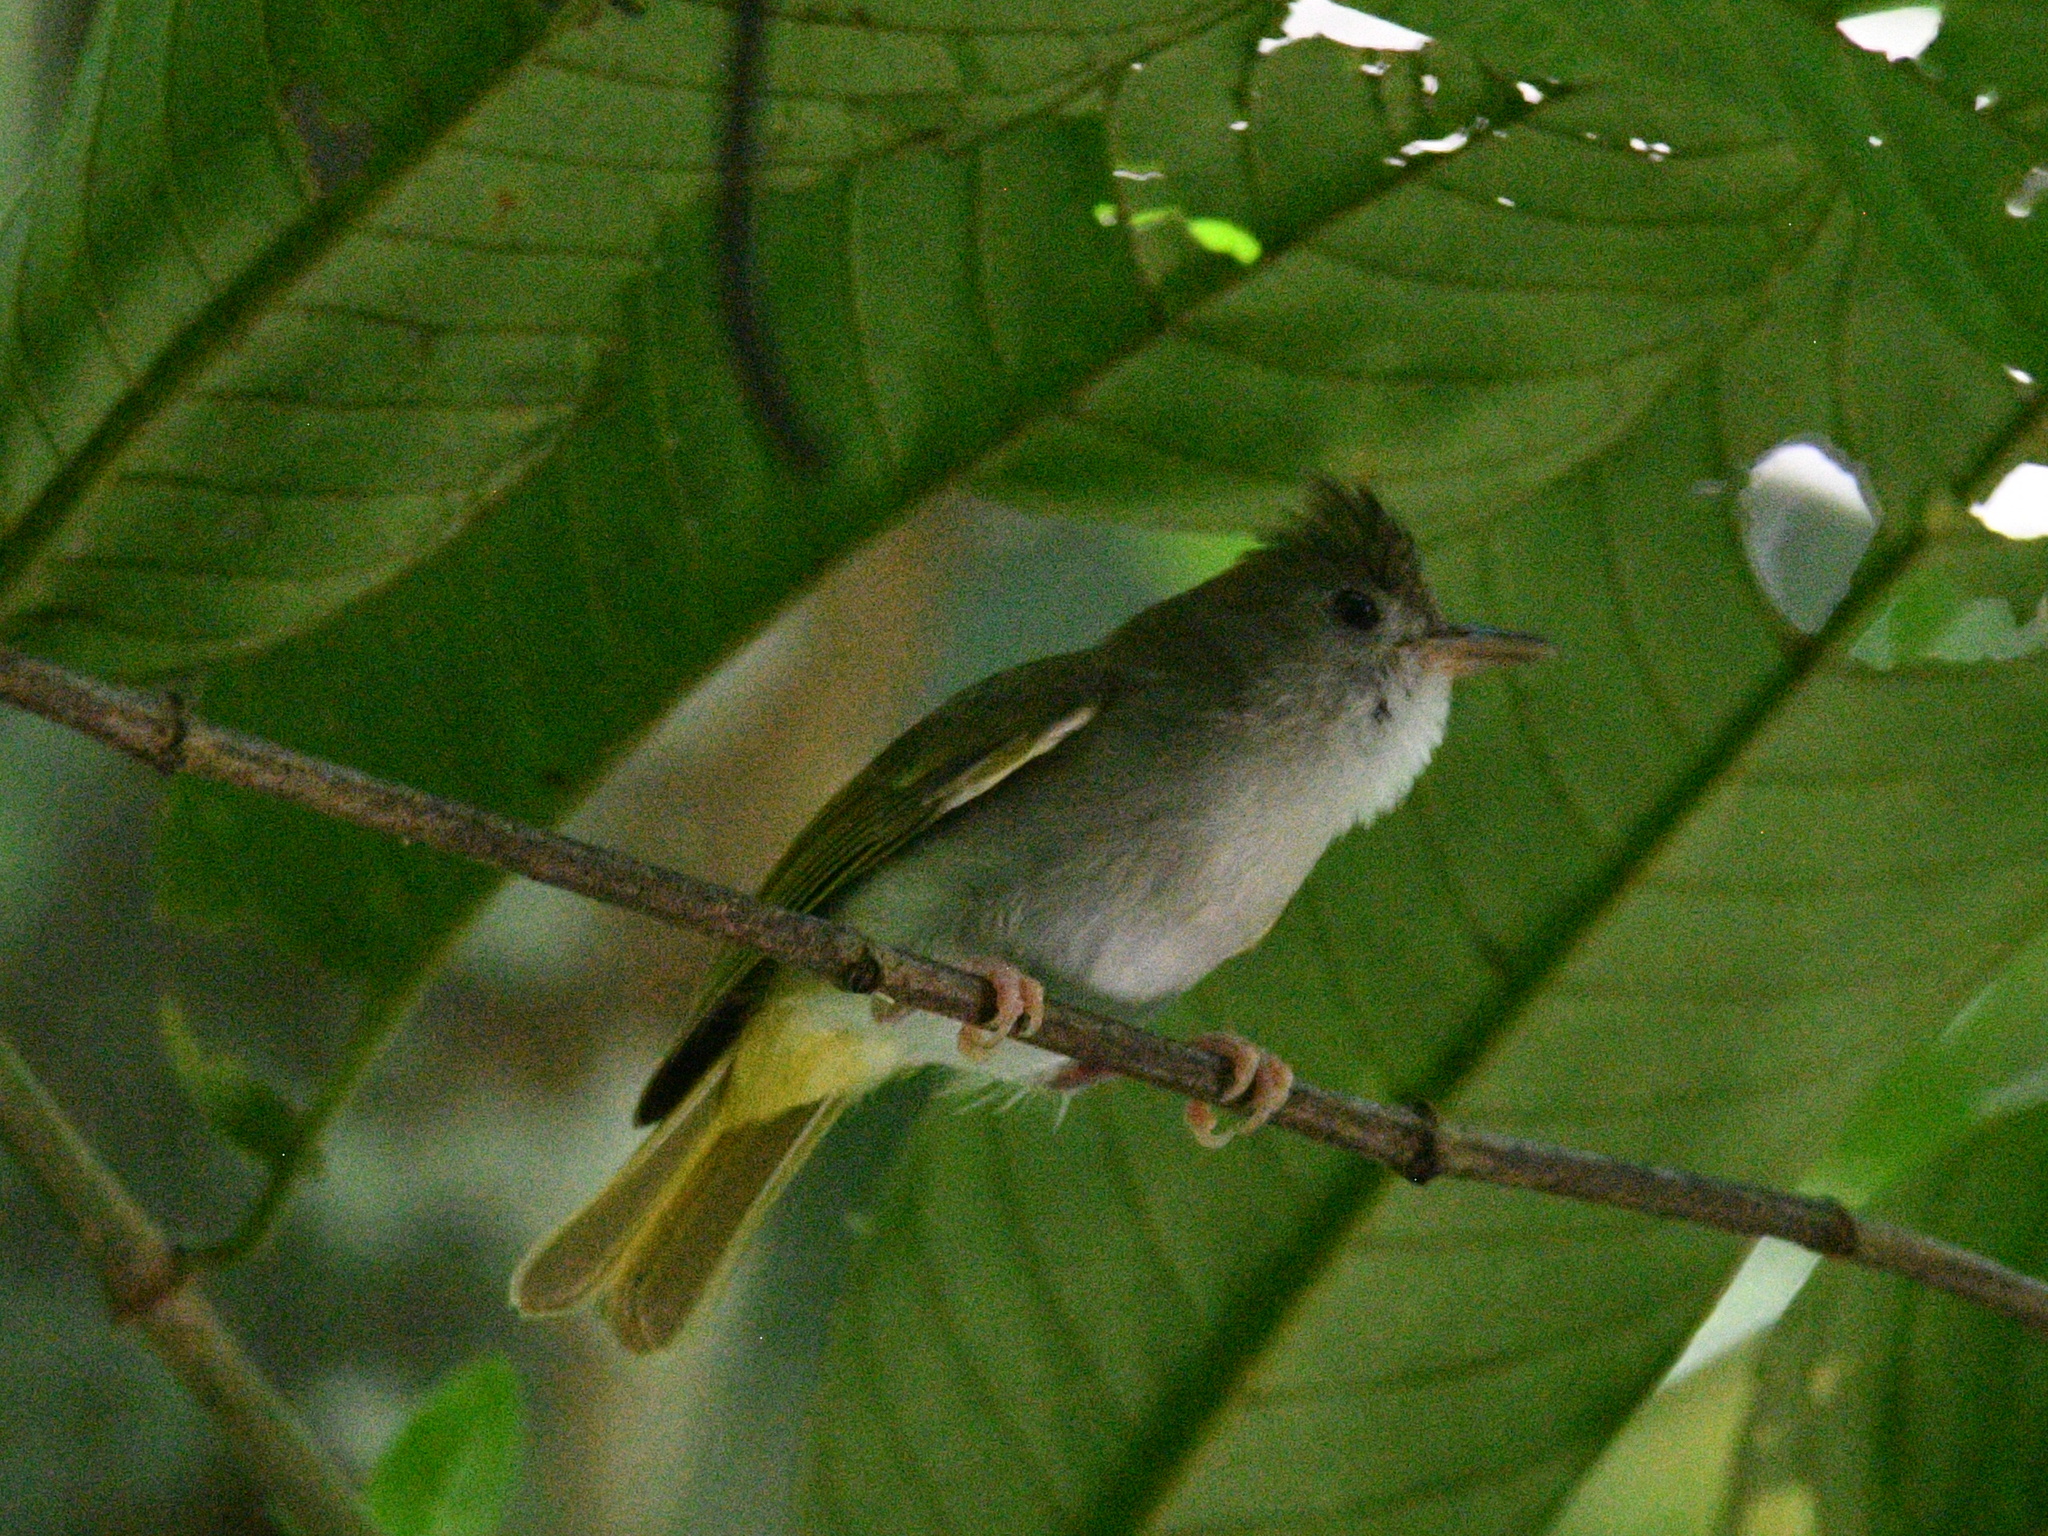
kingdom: Animalia
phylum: Chordata
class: Aves
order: Passeriformes
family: Vireonidae
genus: Erpornis
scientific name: Erpornis zantholeuca
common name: White-bellied erpornis
